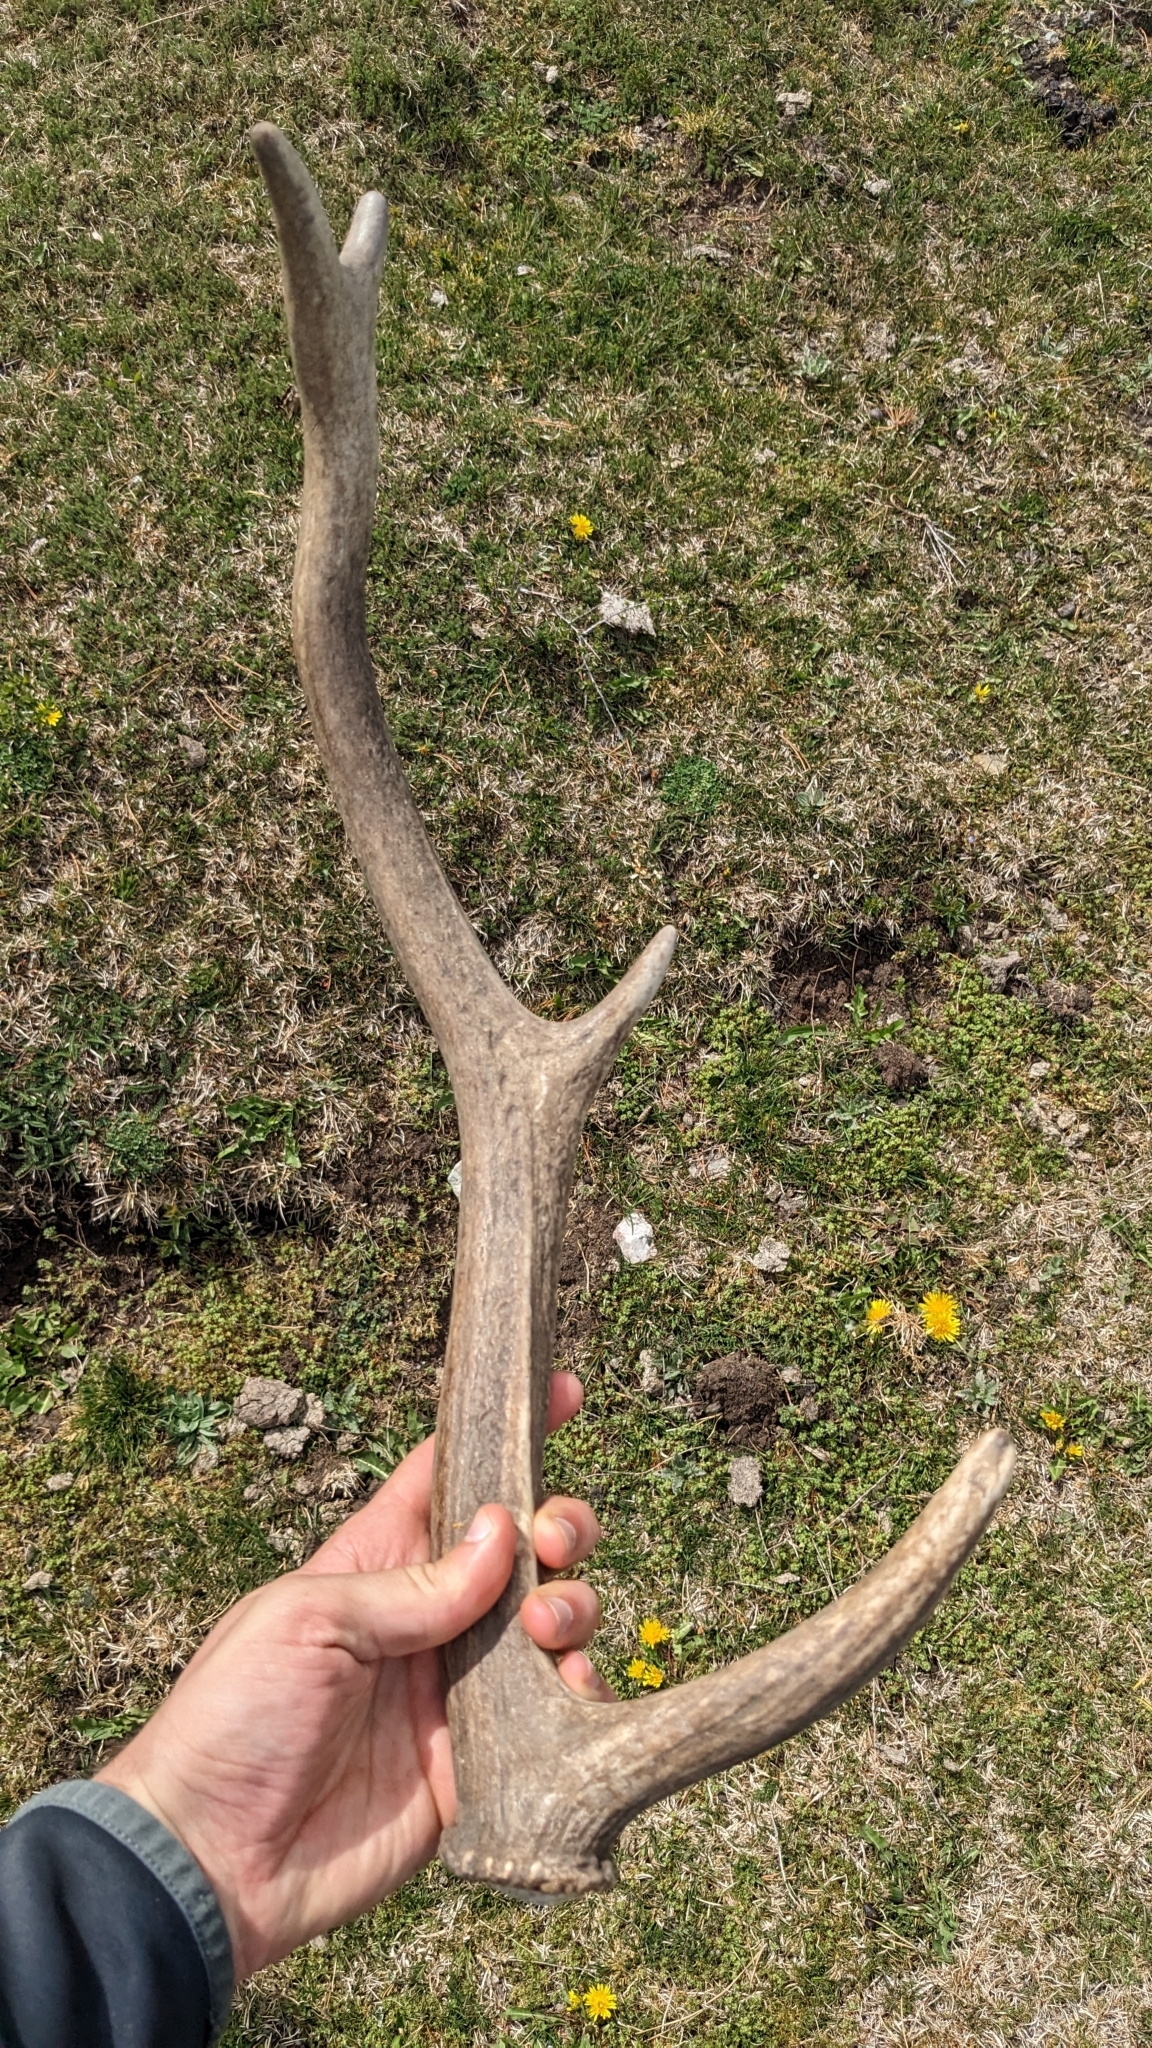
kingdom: Animalia
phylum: Chordata
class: Mammalia
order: Artiodactyla
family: Cervidae
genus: Cervus
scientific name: Cervus elaphus
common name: Red deer
